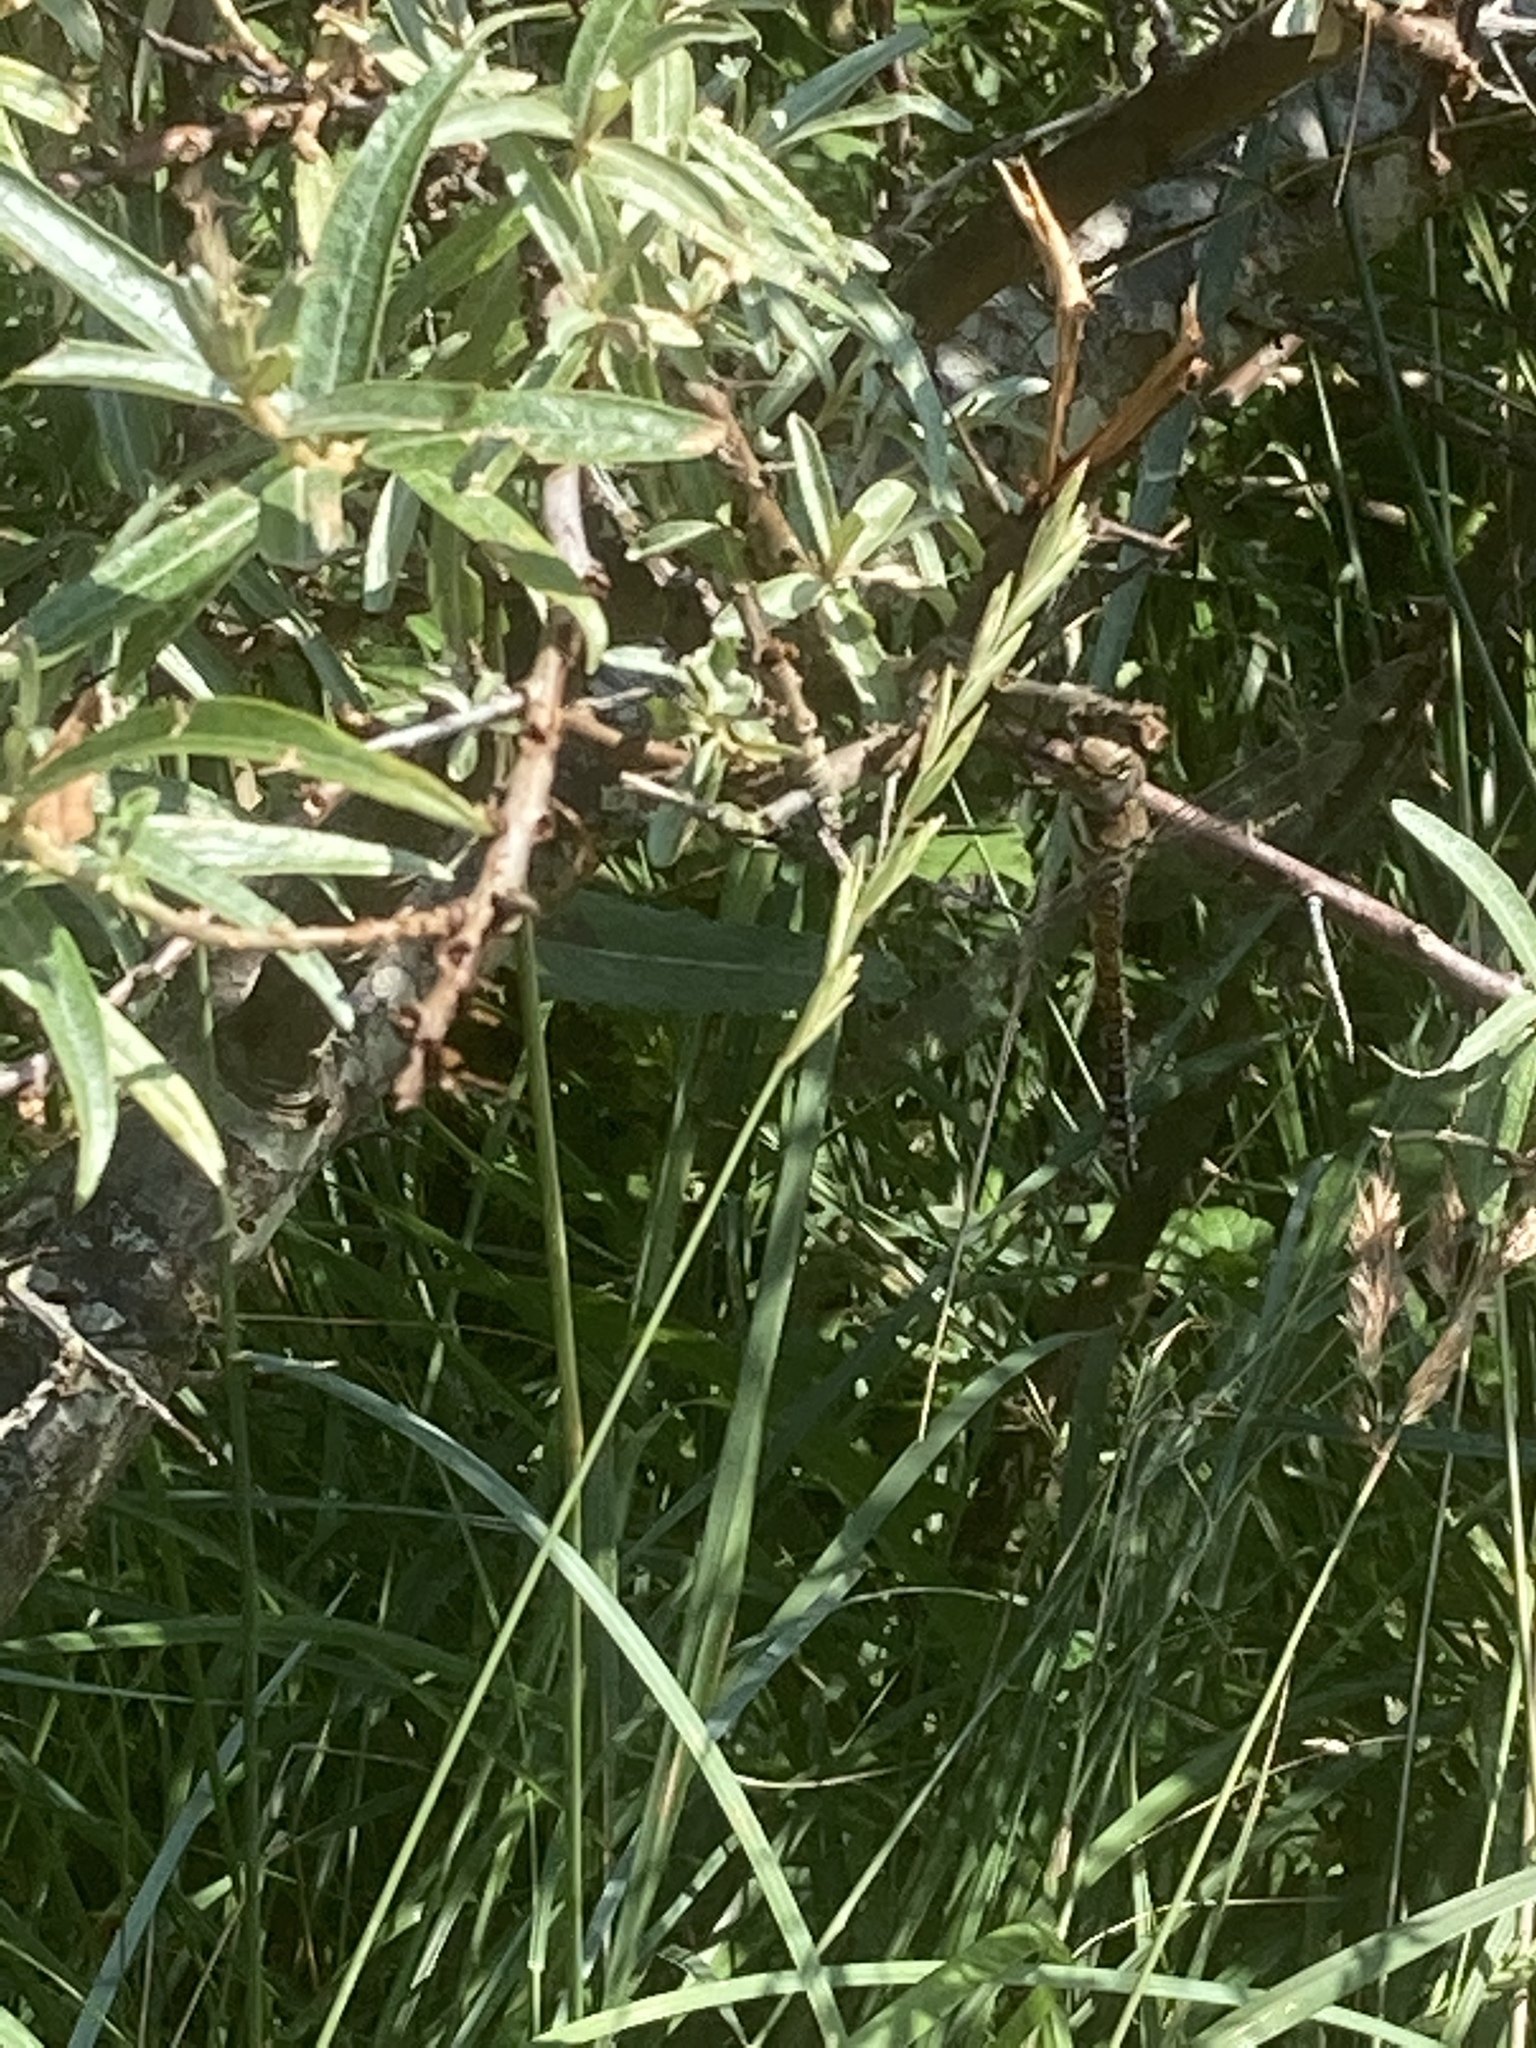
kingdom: Plantae
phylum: Tracheophyta
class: Liliopsida
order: Poales
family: Poaceae
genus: Elymus
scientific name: Elymus athericus
